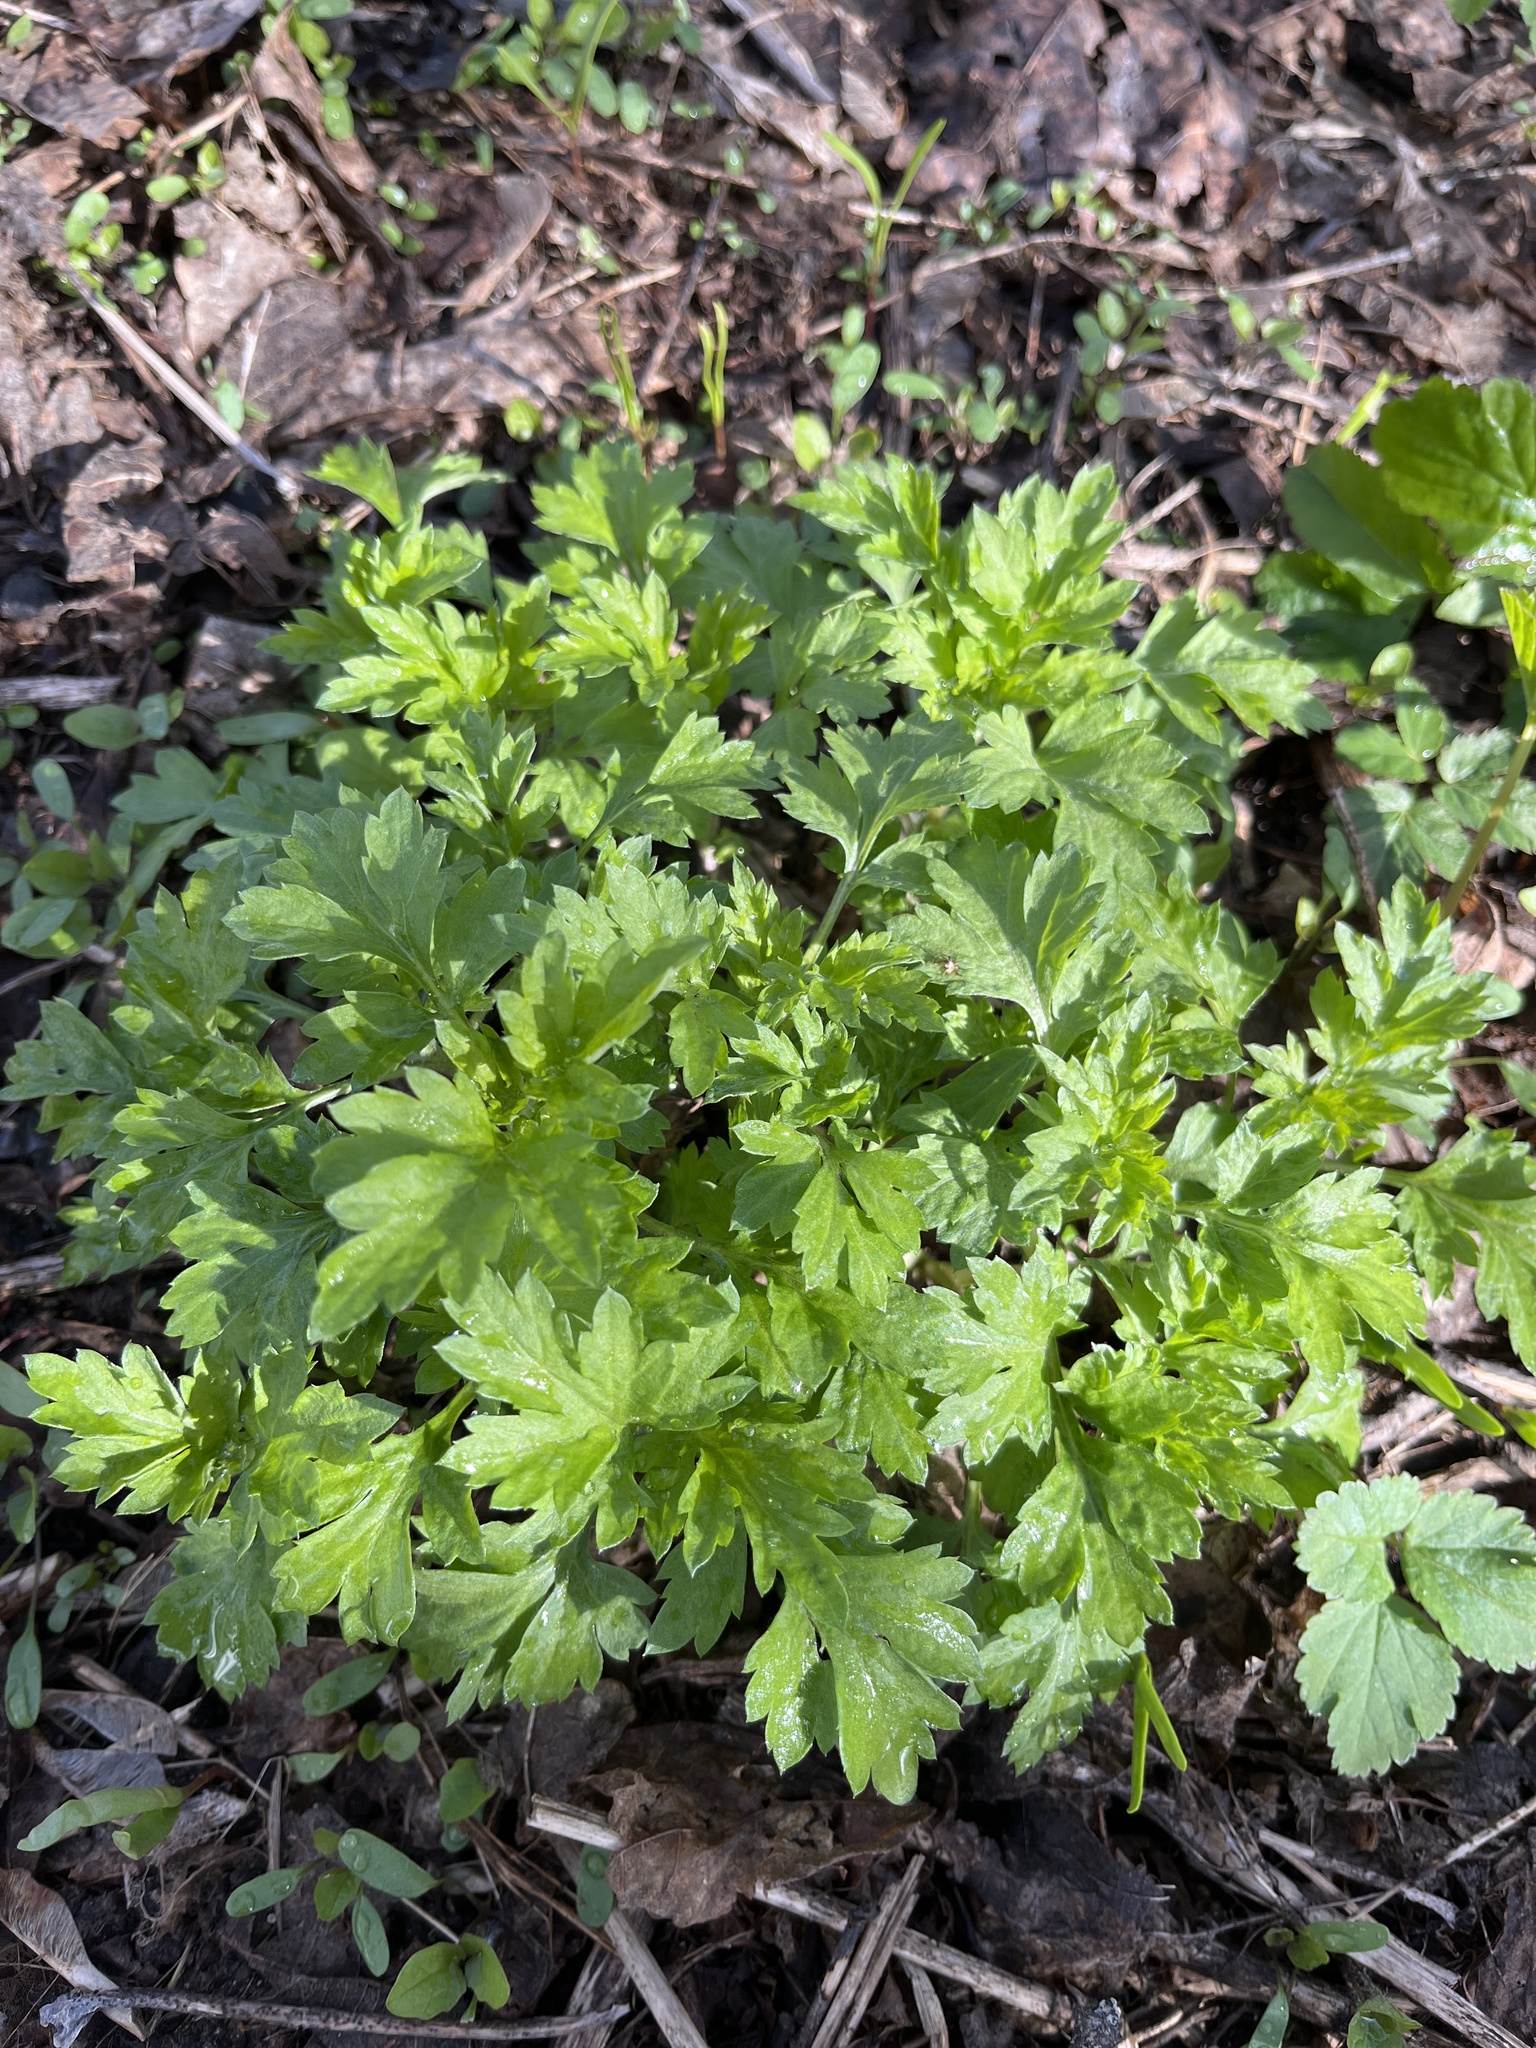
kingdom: Plantae
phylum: Tracheophyta
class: Magnoliopsida
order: Asterales
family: Asteraceae
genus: Artemisia
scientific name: Artemisia vulgaris
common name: Mugwort
